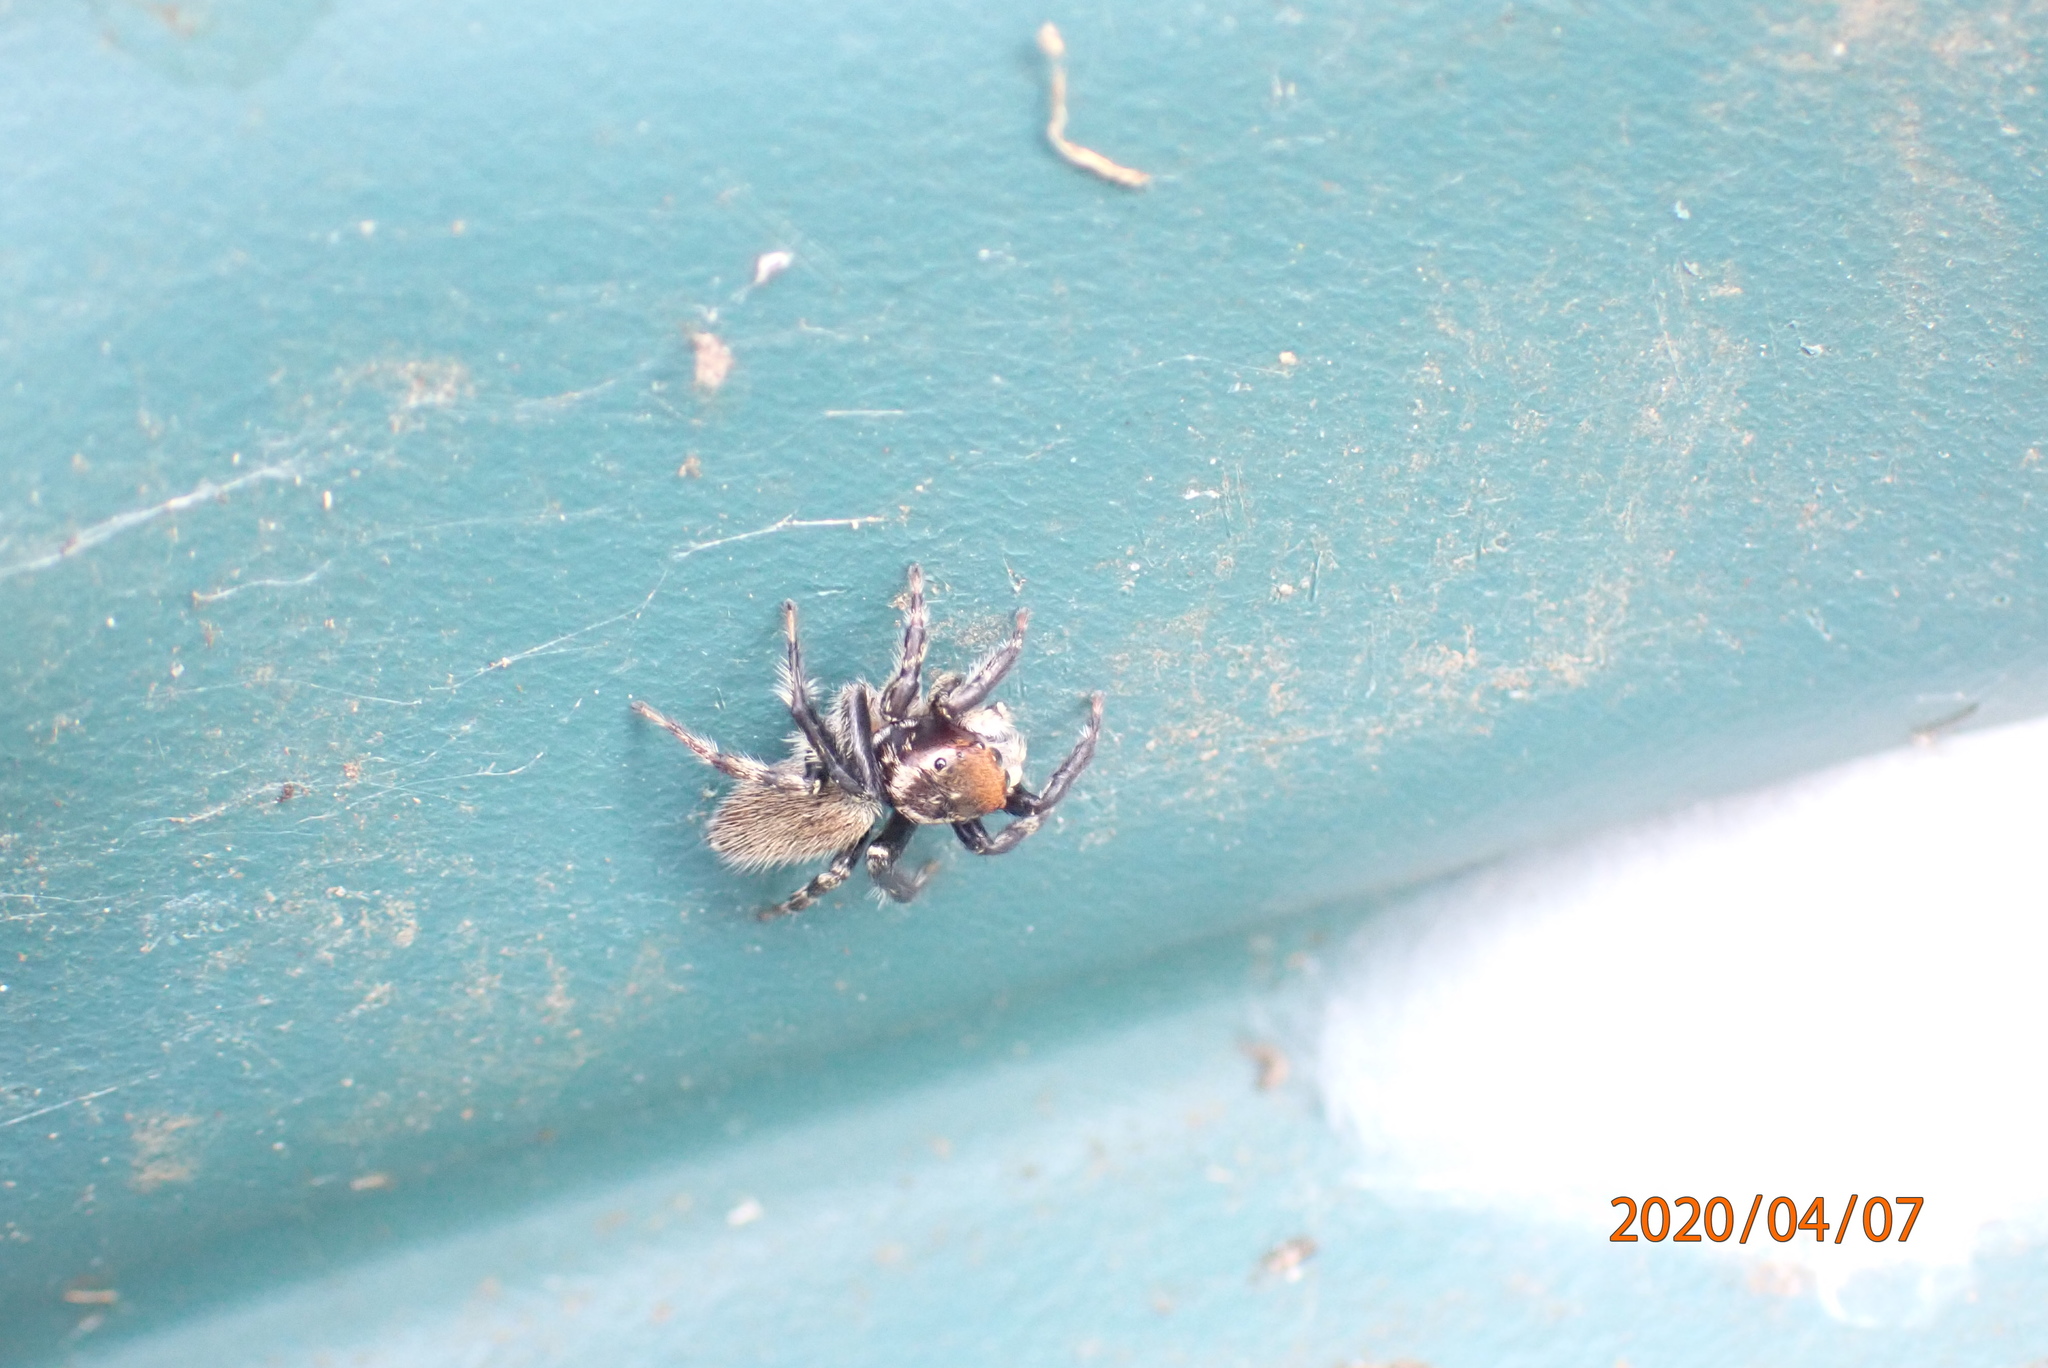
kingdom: Animalia
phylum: Arthropoda
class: Arachnida
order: Araneae
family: Salticidae
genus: Maratus
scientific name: Maratus griseus
